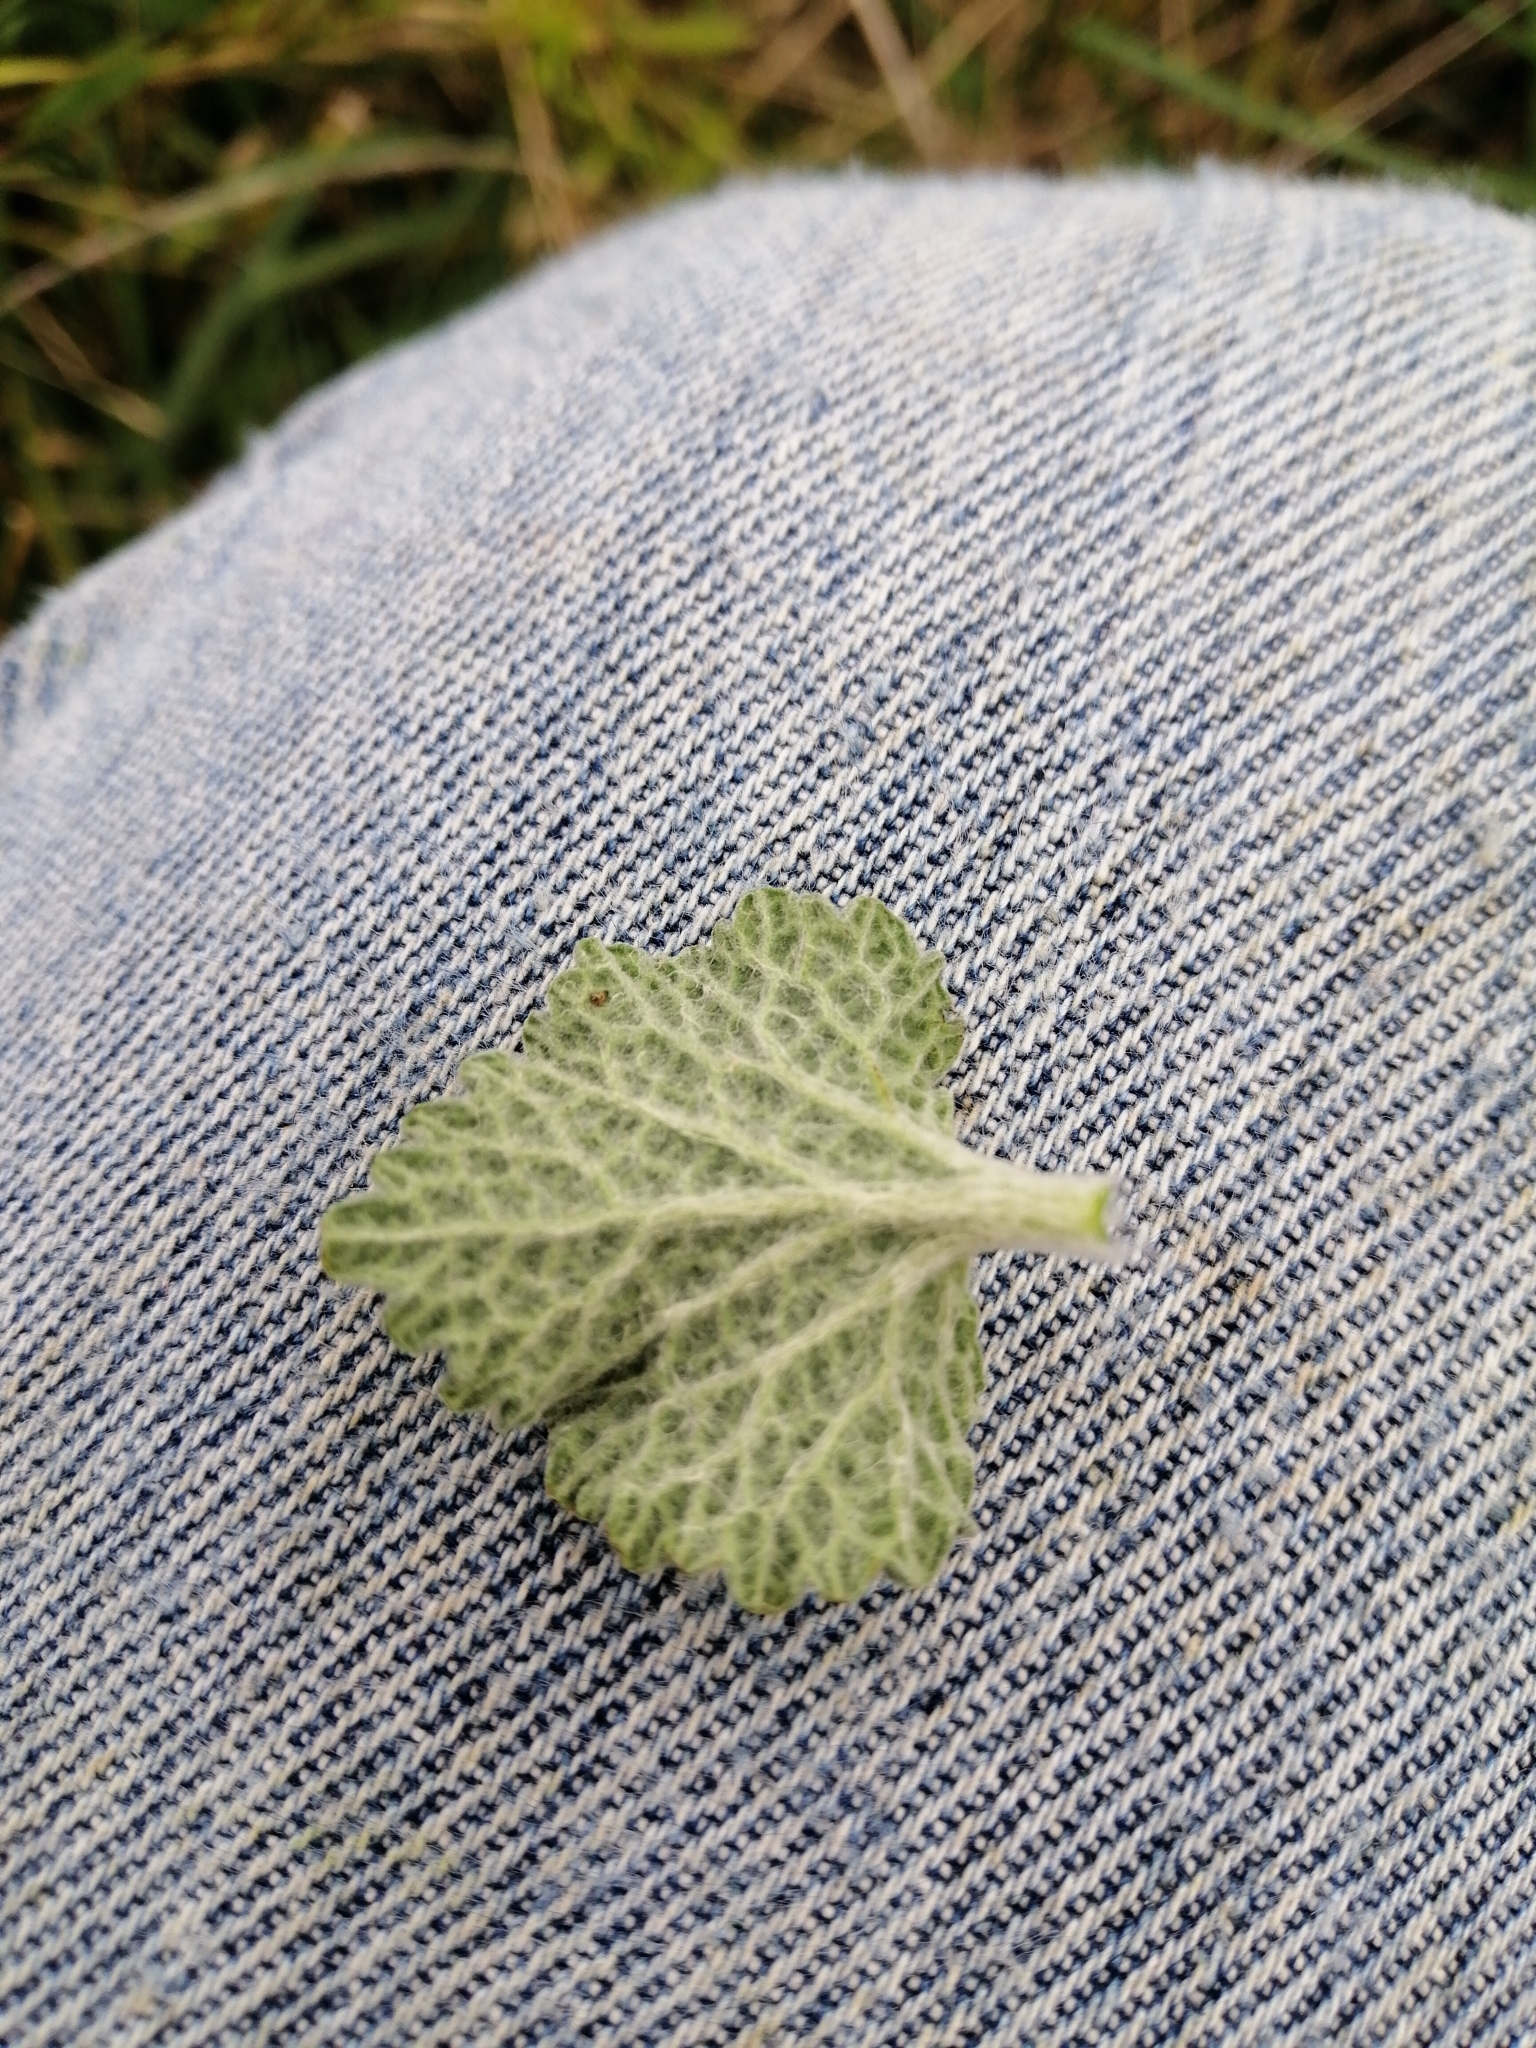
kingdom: Plantae
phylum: Tracheophyta
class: Magnoliopsida
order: Lamiales
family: Lamiaceae
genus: Marrubium
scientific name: Marrubium vulgare
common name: Horehound
